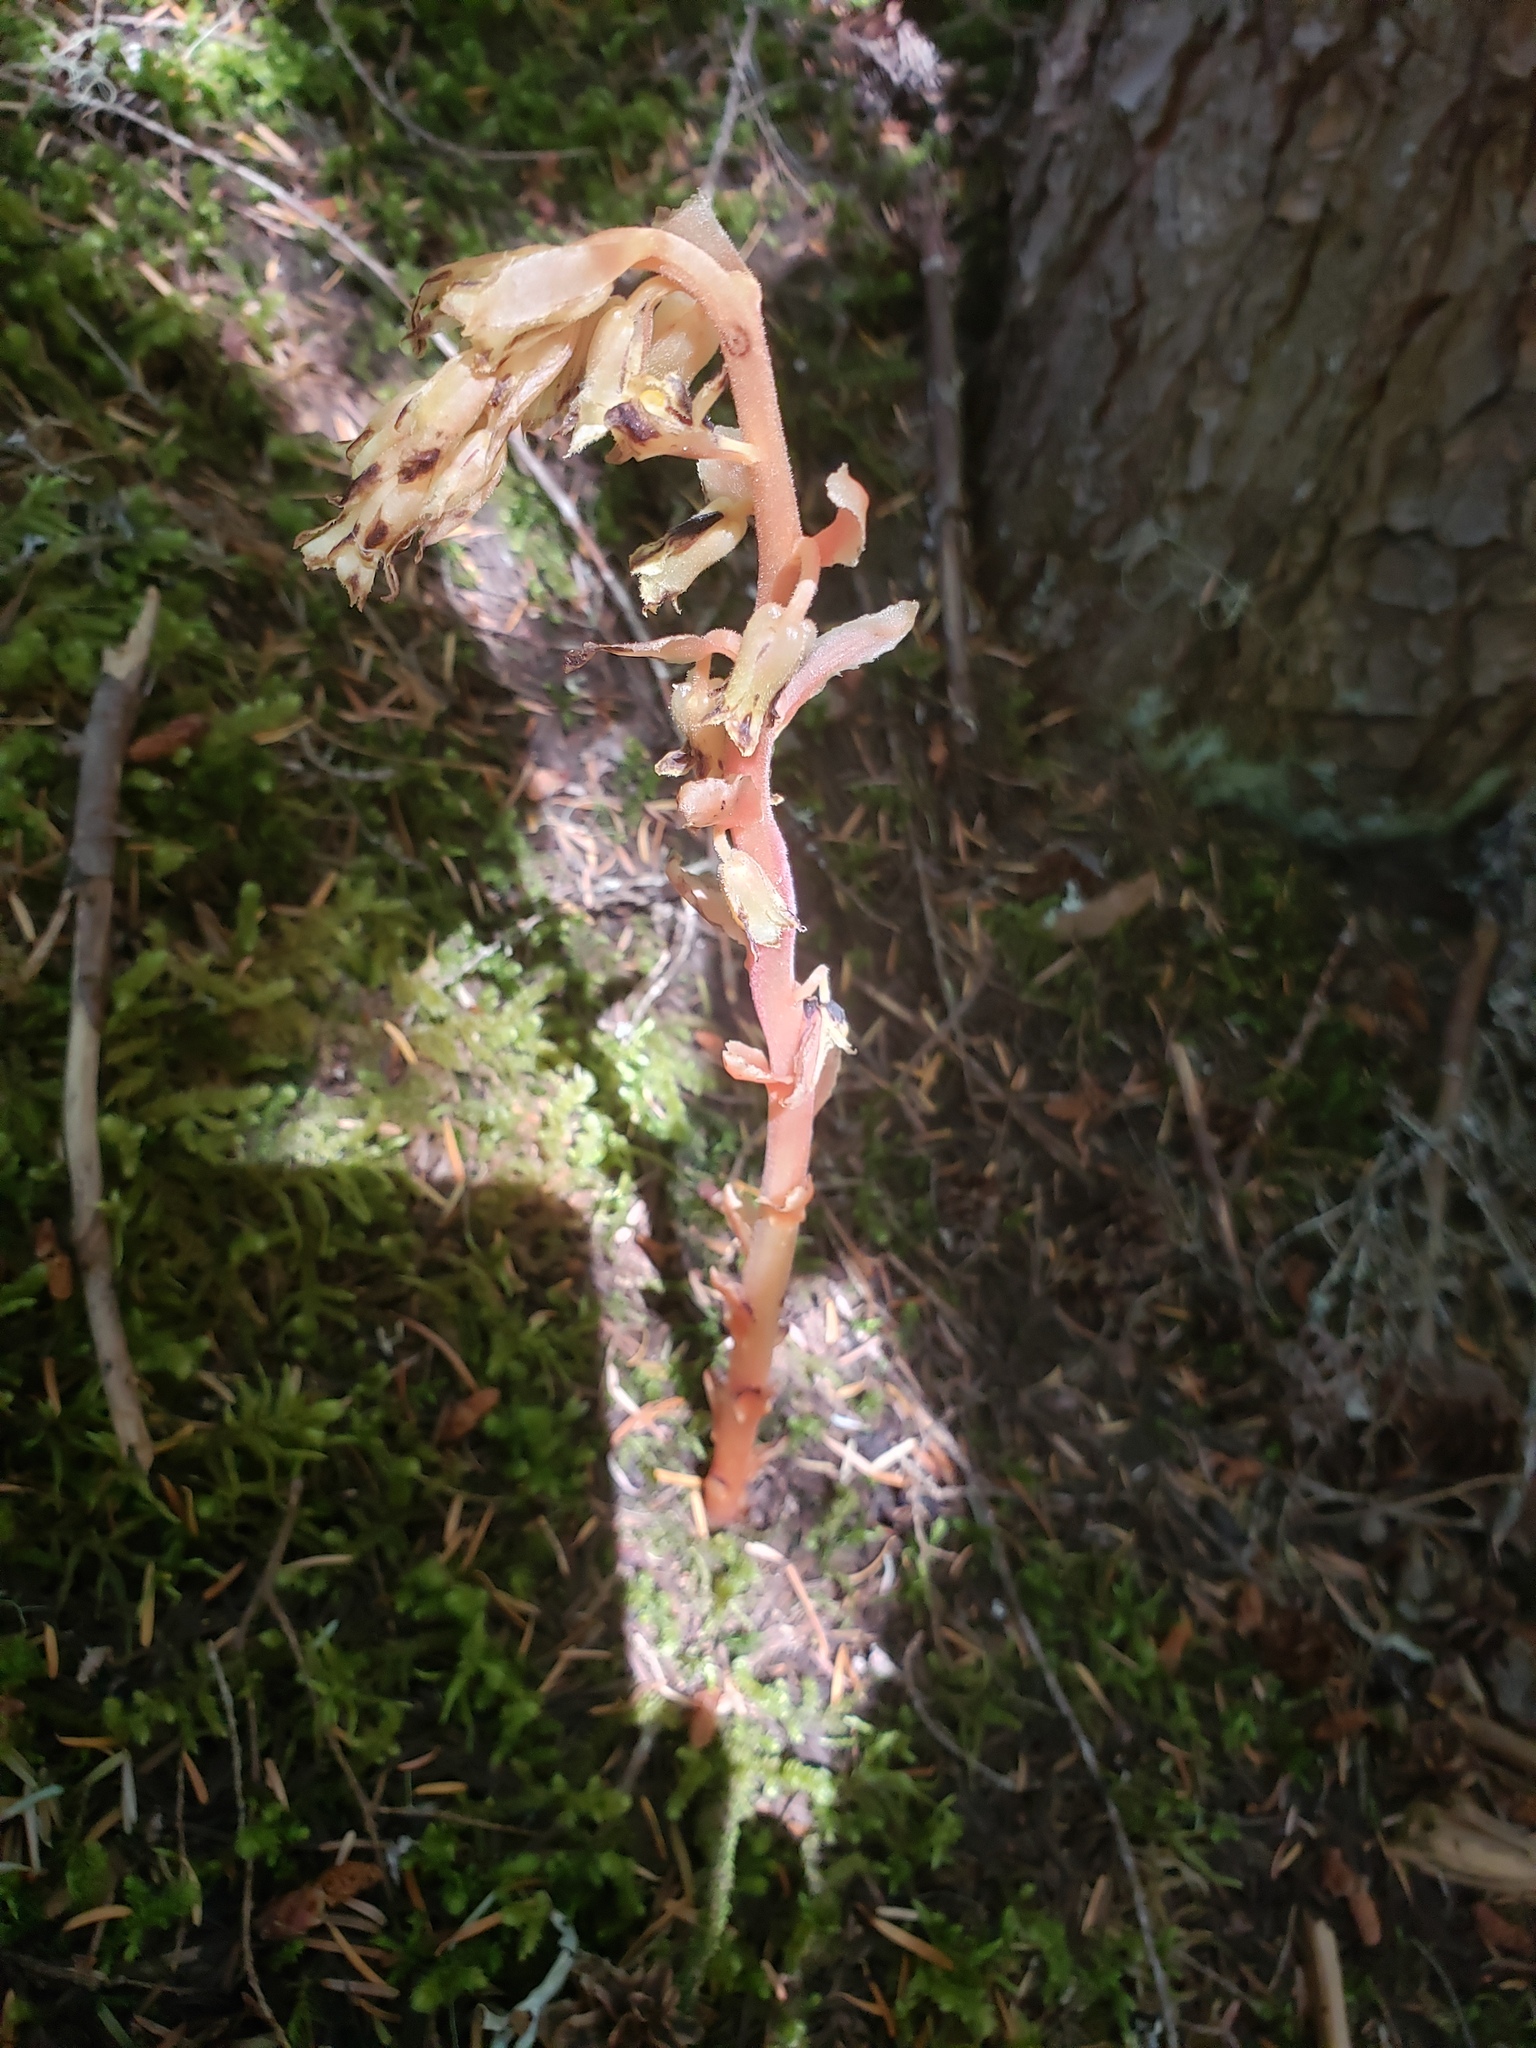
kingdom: Plantae
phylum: Tracheophyta
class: Magnoliopsida
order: Ericales
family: Ericaceae
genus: Hypopitys
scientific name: Hypopitys monotropa
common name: Yellow bird's-nest
